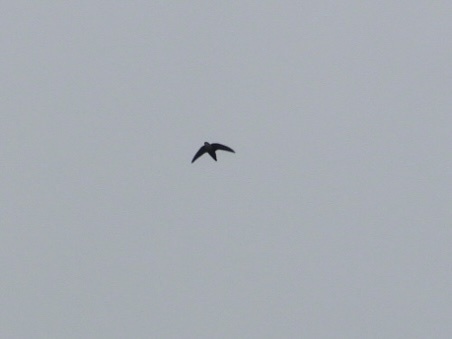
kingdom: Animalia
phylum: Chordata
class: Aves
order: Apodiformes
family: Apodidae
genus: Chaetura
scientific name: Chaetura vauxi
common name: Vaux's swift
